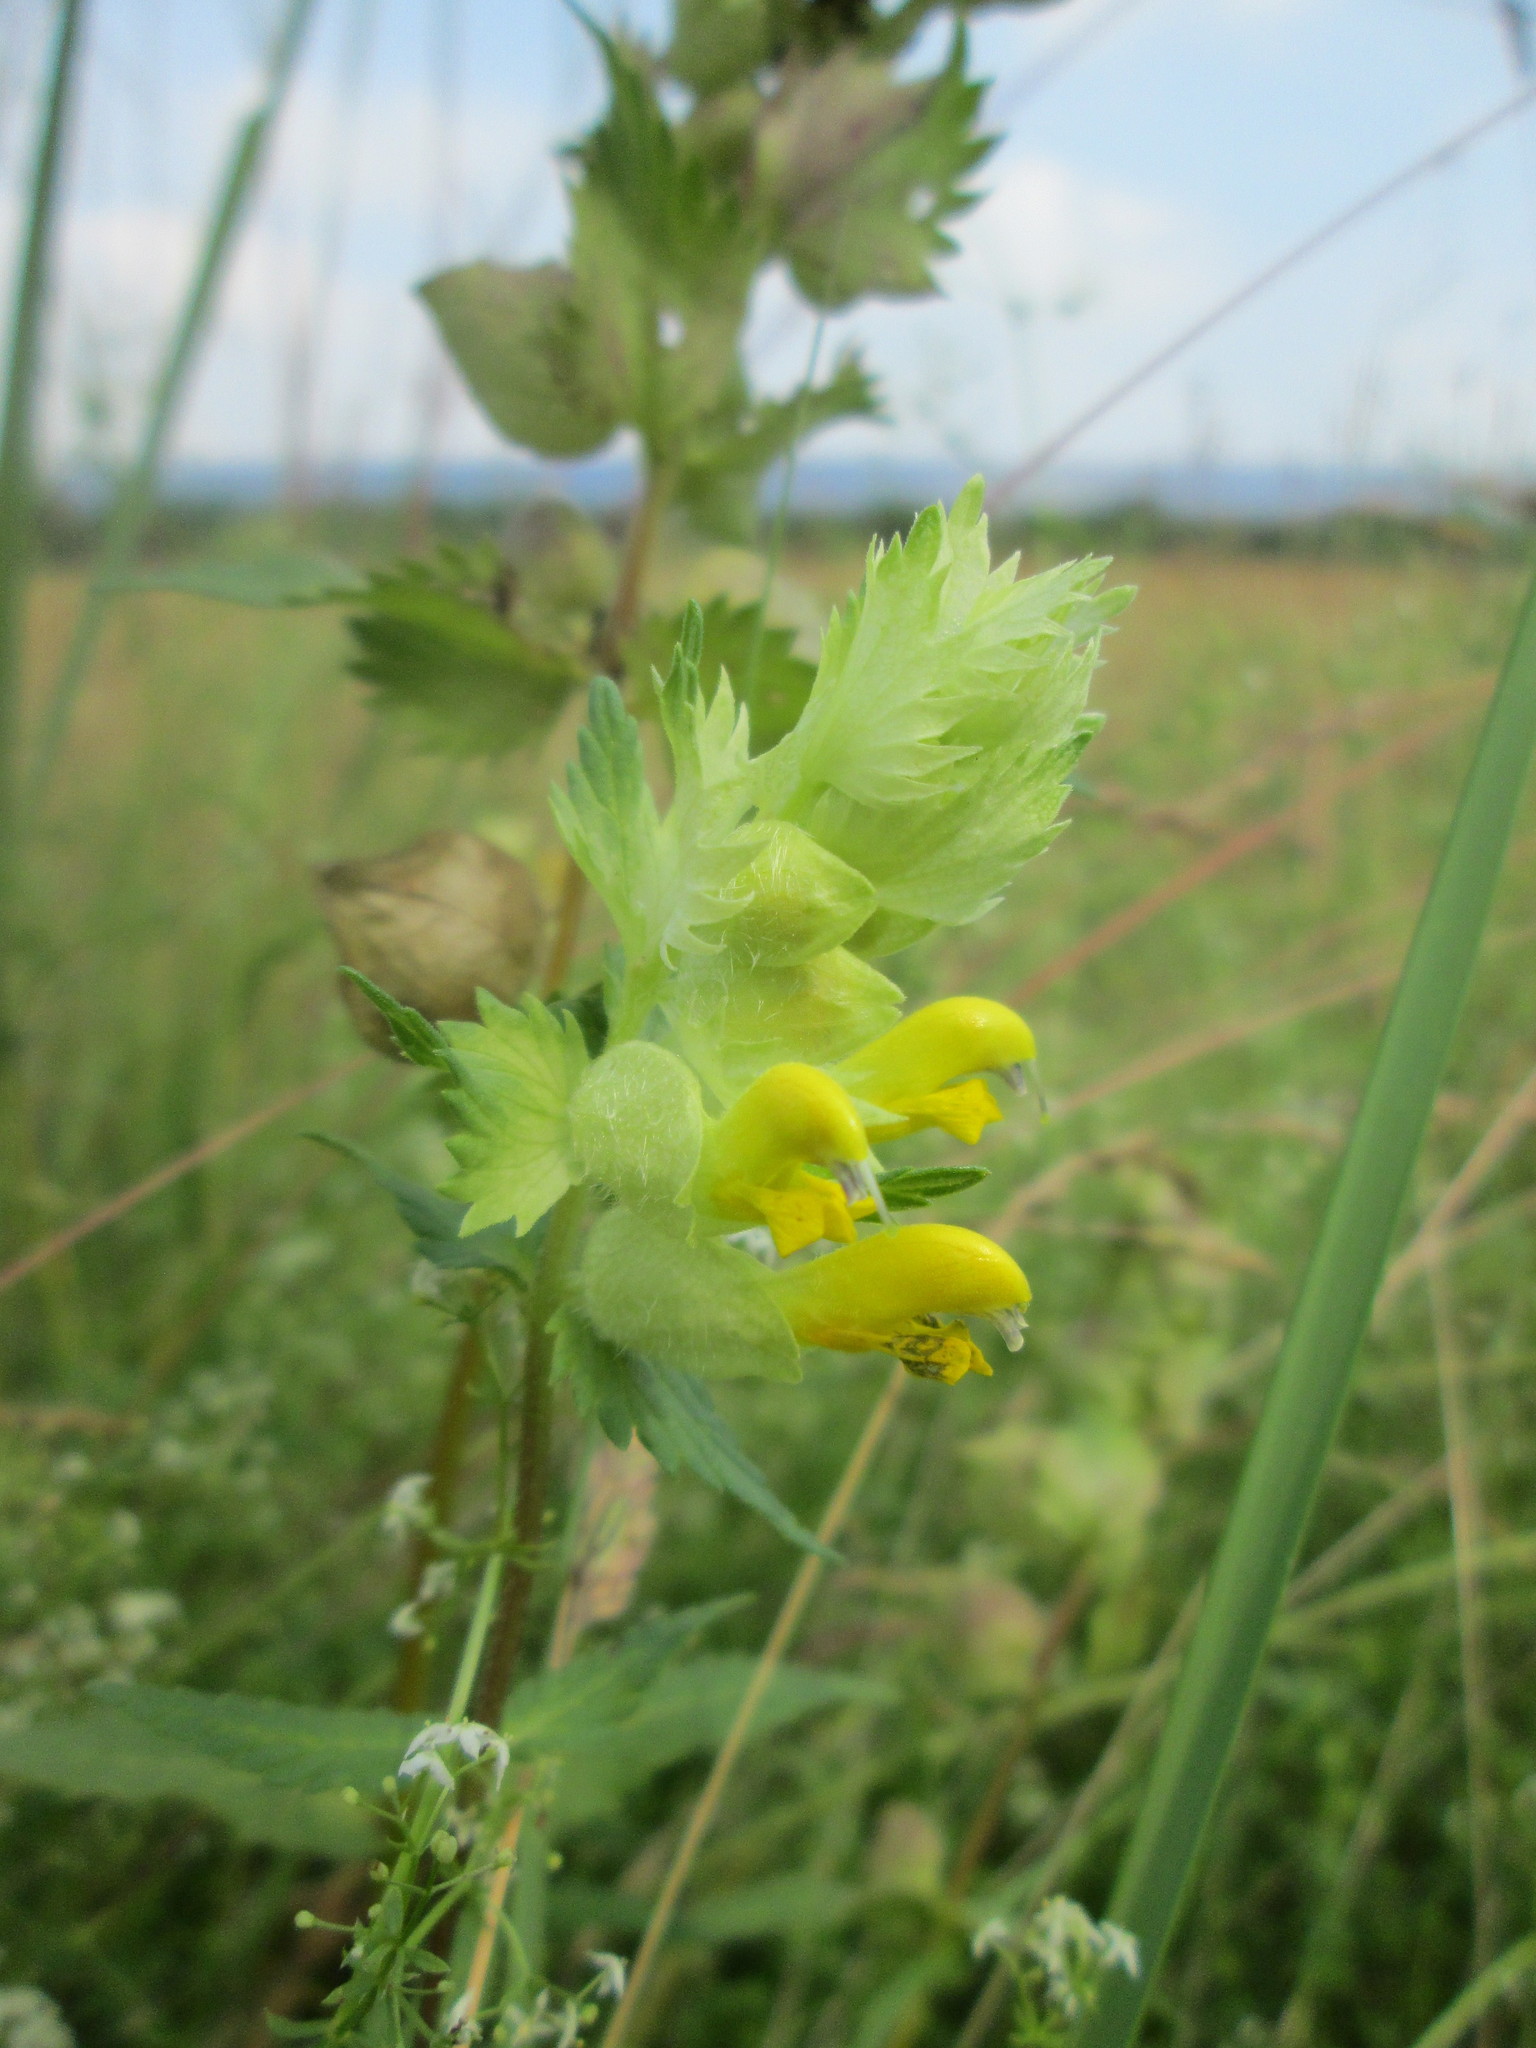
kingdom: Plantae
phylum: Tracheophyta
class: Magnoliopsida
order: Lamiales
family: Orobanchaceae
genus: Rhinanthus
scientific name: Rhinanthus alectorolophus
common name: Greater yellow-rattle
